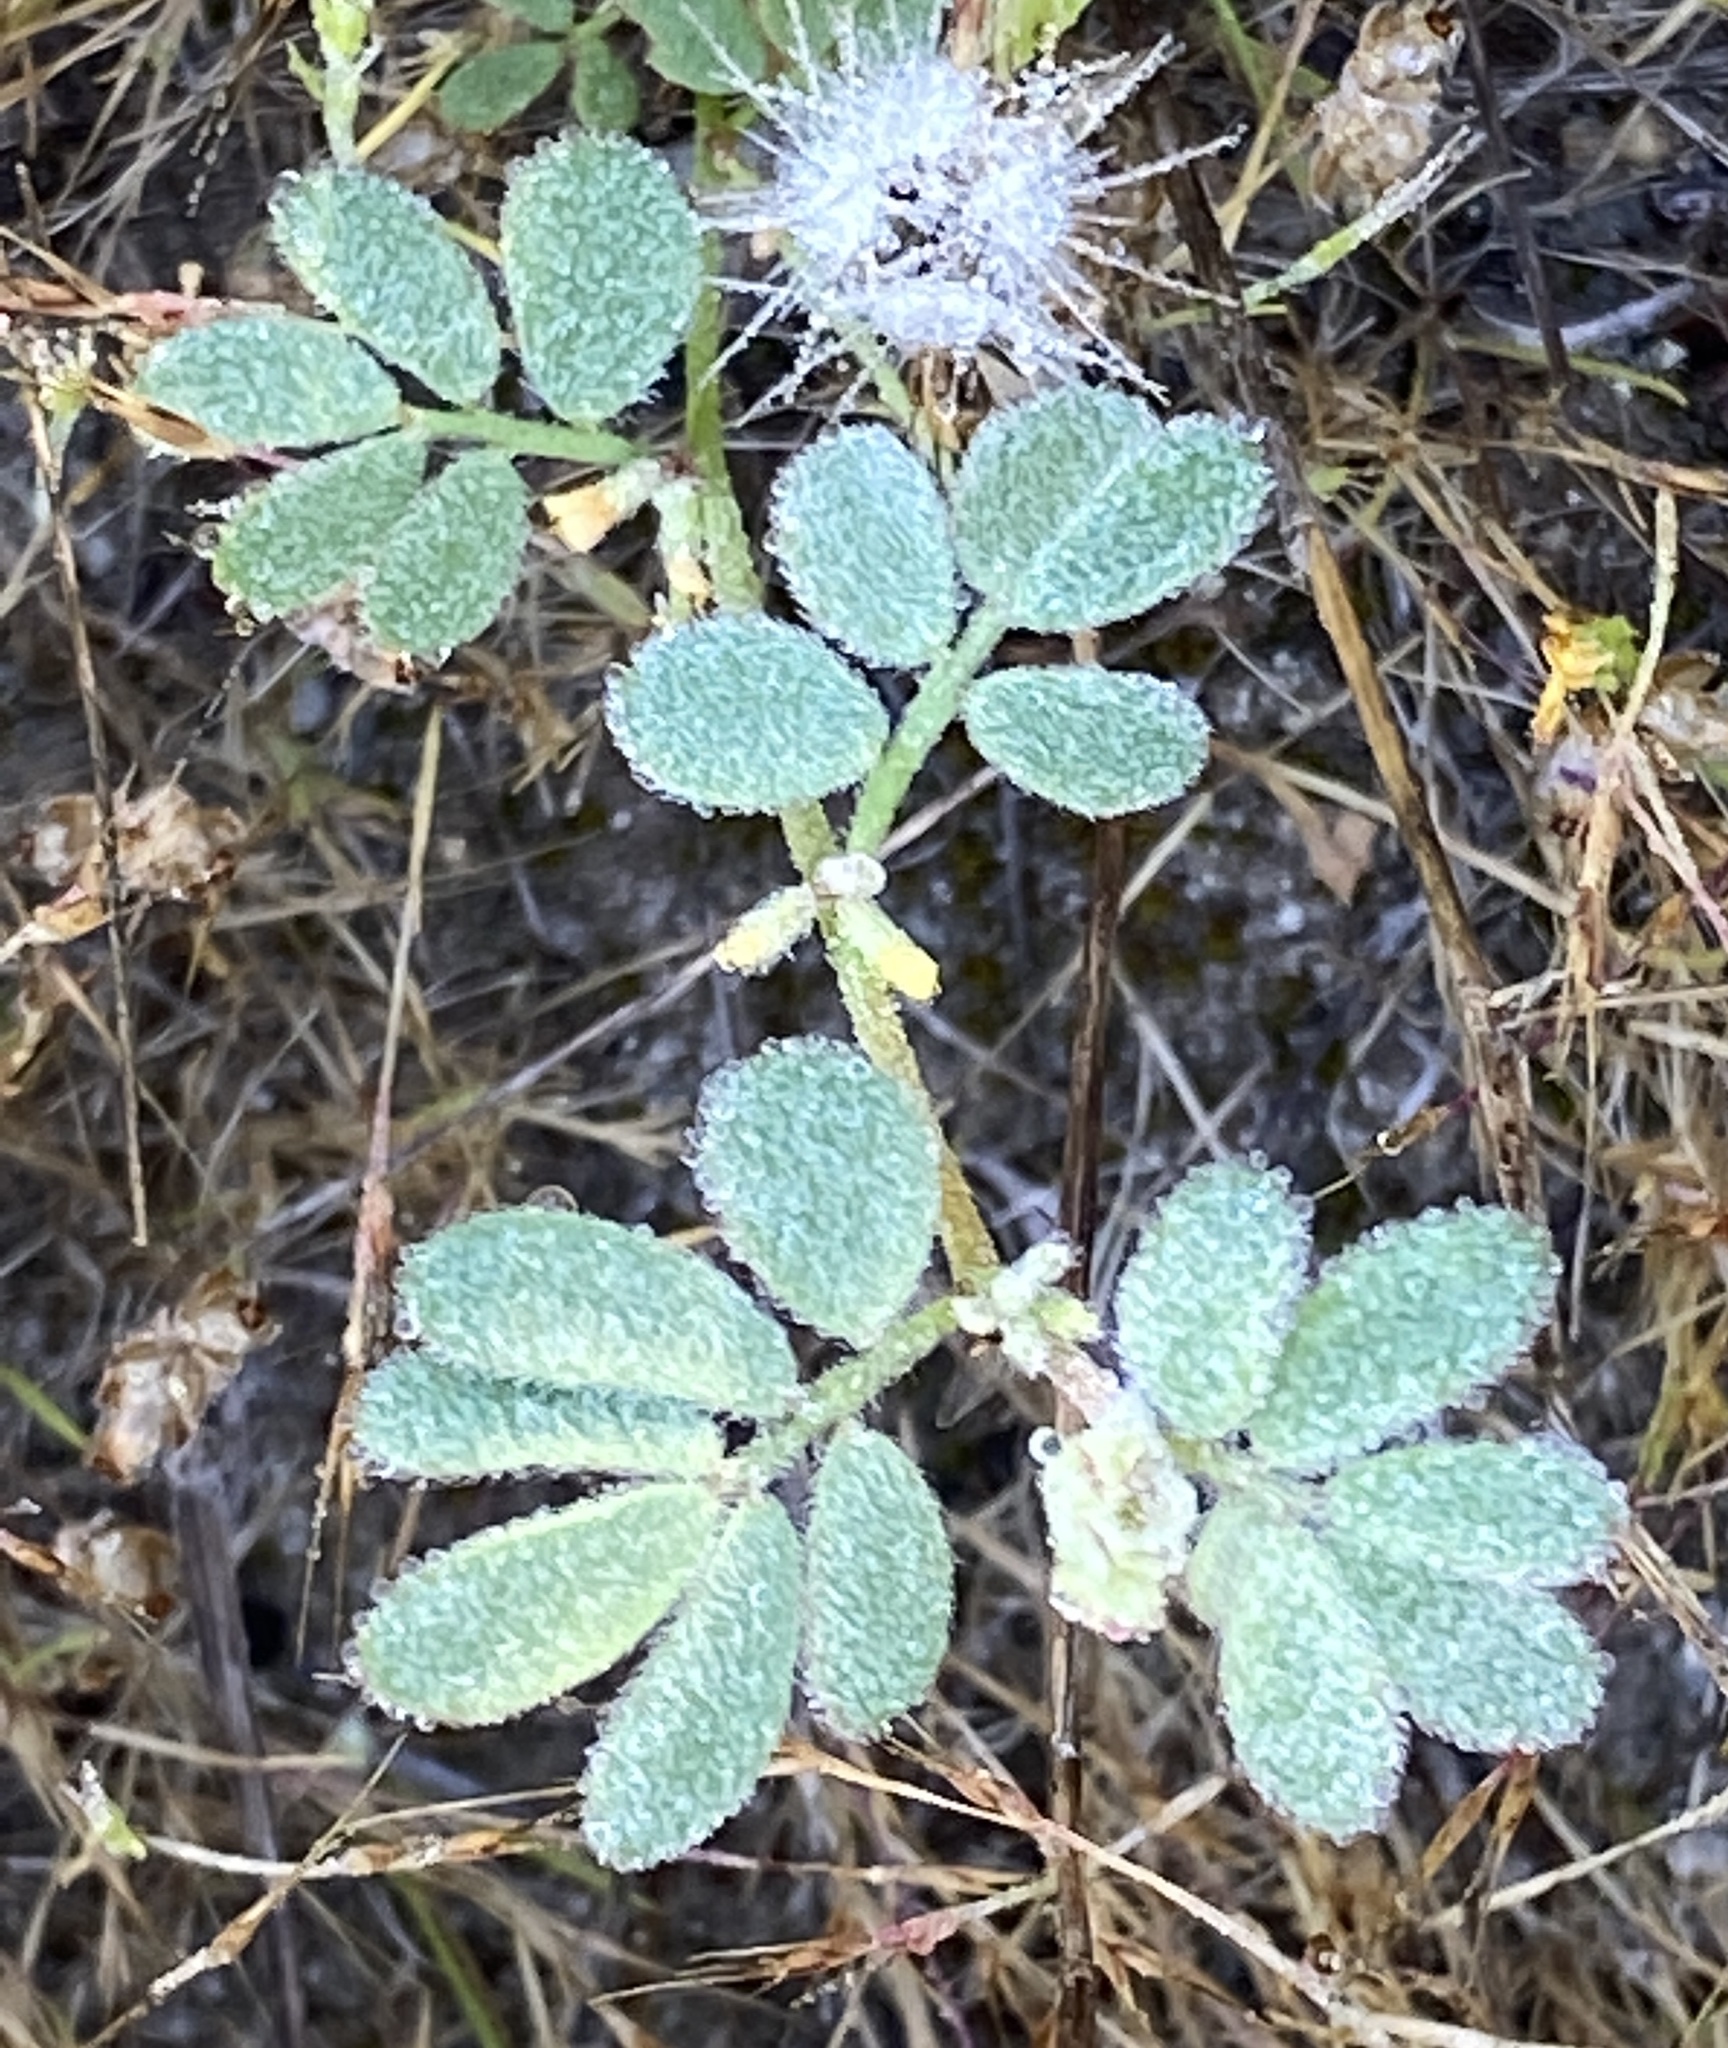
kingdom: Plantae
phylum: Tracheophyta
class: Magnoliopsida
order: Fabales
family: Fabaceae
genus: Acmispon
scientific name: Acmispon micranthus
